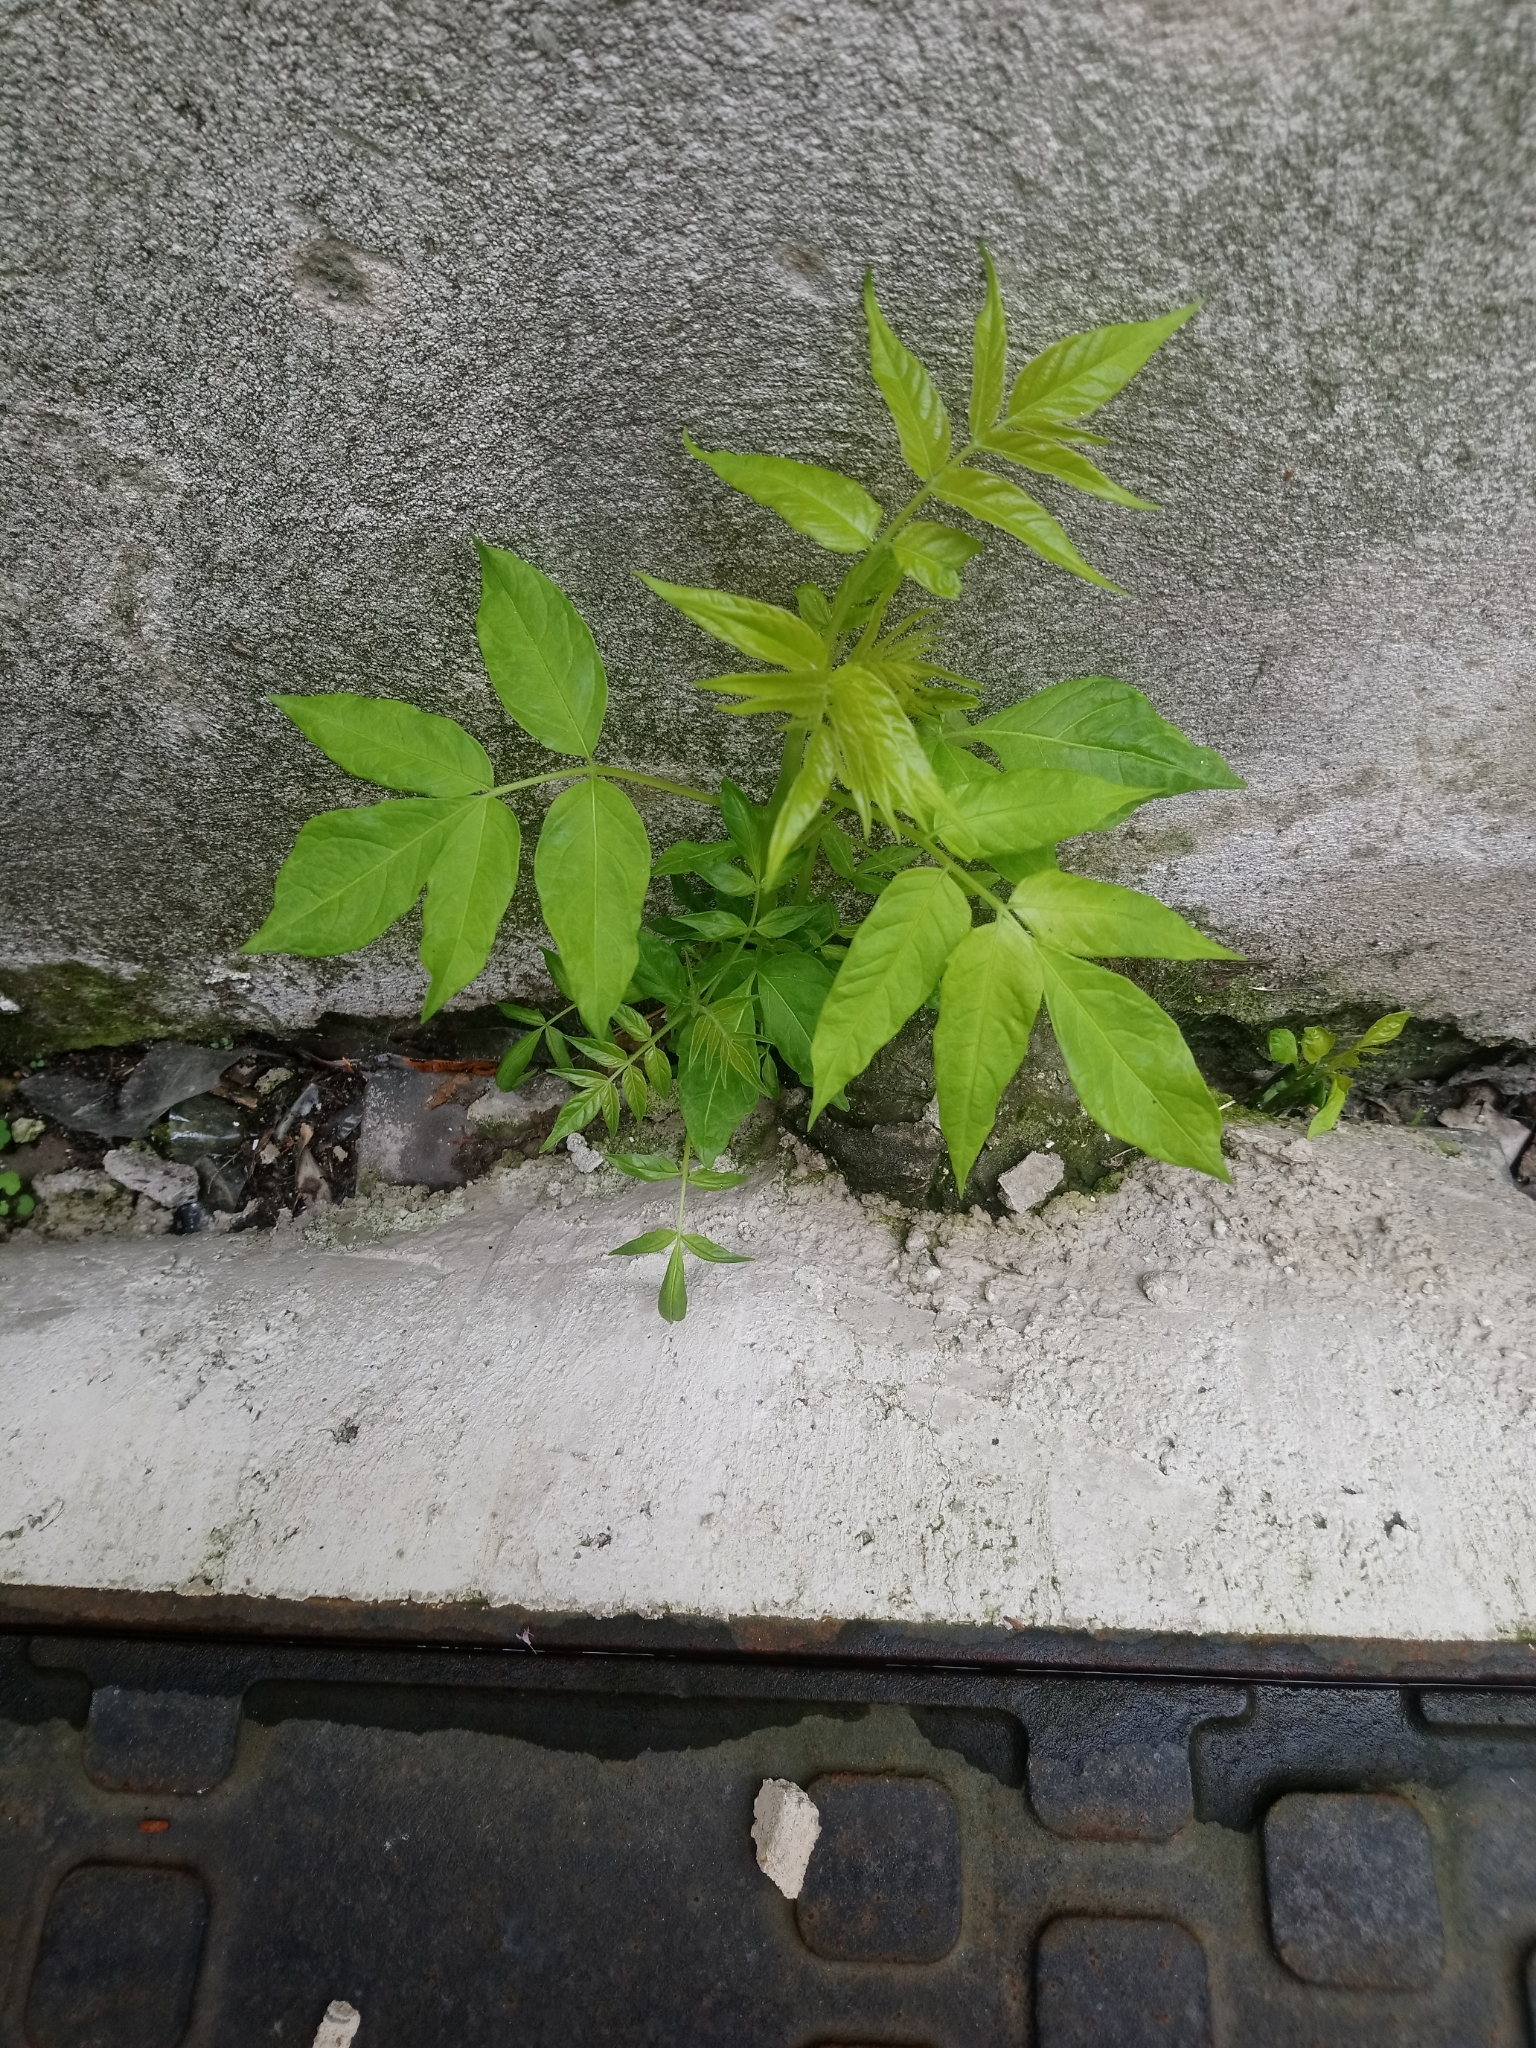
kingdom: Plantae
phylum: Tracheophyta
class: Magnoliopsida
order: Sapindales
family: Simaroubaceae
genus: Ailanthus
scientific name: Ailanthus altissima
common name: Tree-of-heaven
